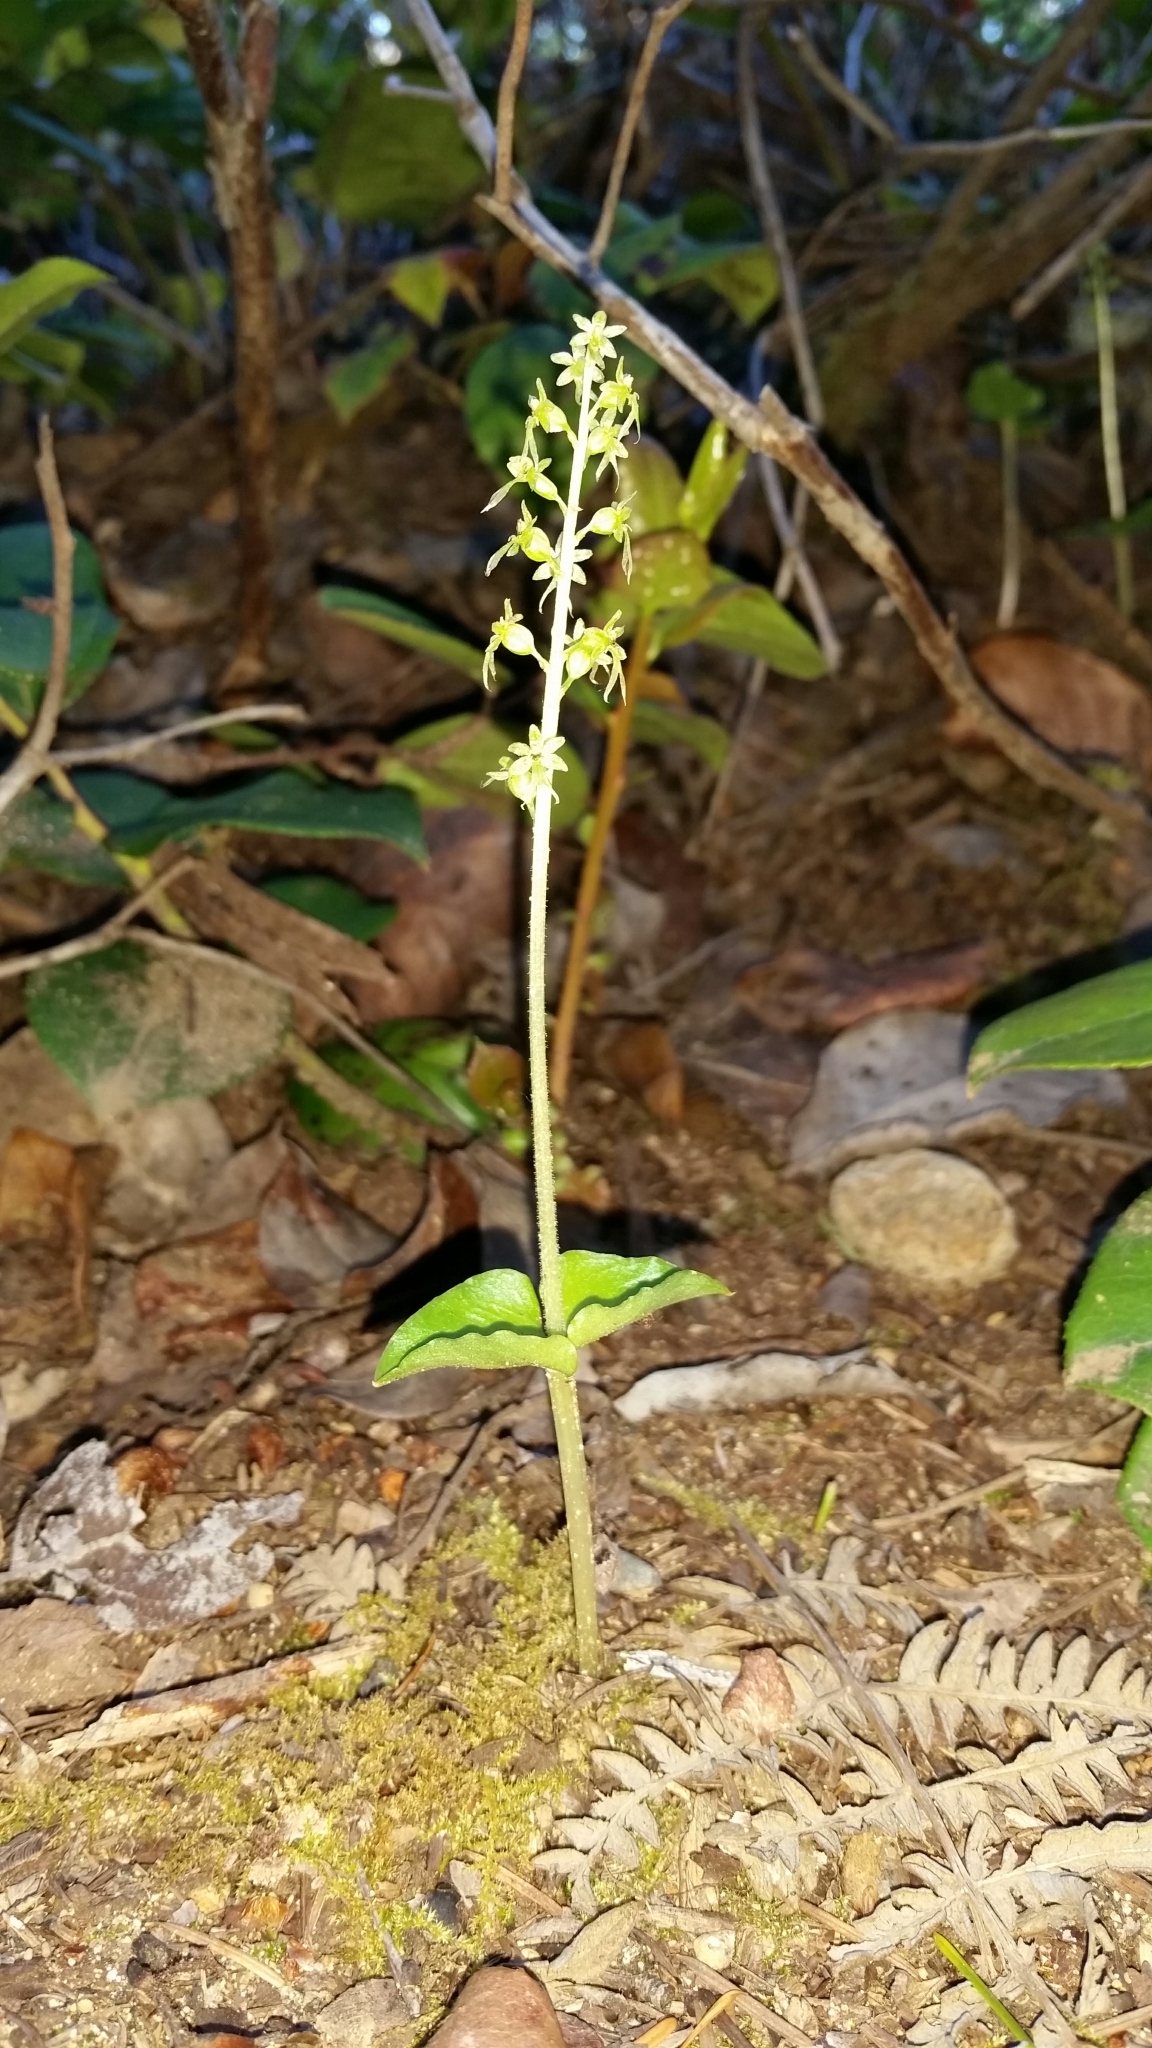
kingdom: Plantae
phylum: Tracheophyta
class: Liliopsida
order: Asparagales
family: Orchidaceae
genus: Neottia
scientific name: Neottia cordata
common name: Lesser twayblade
